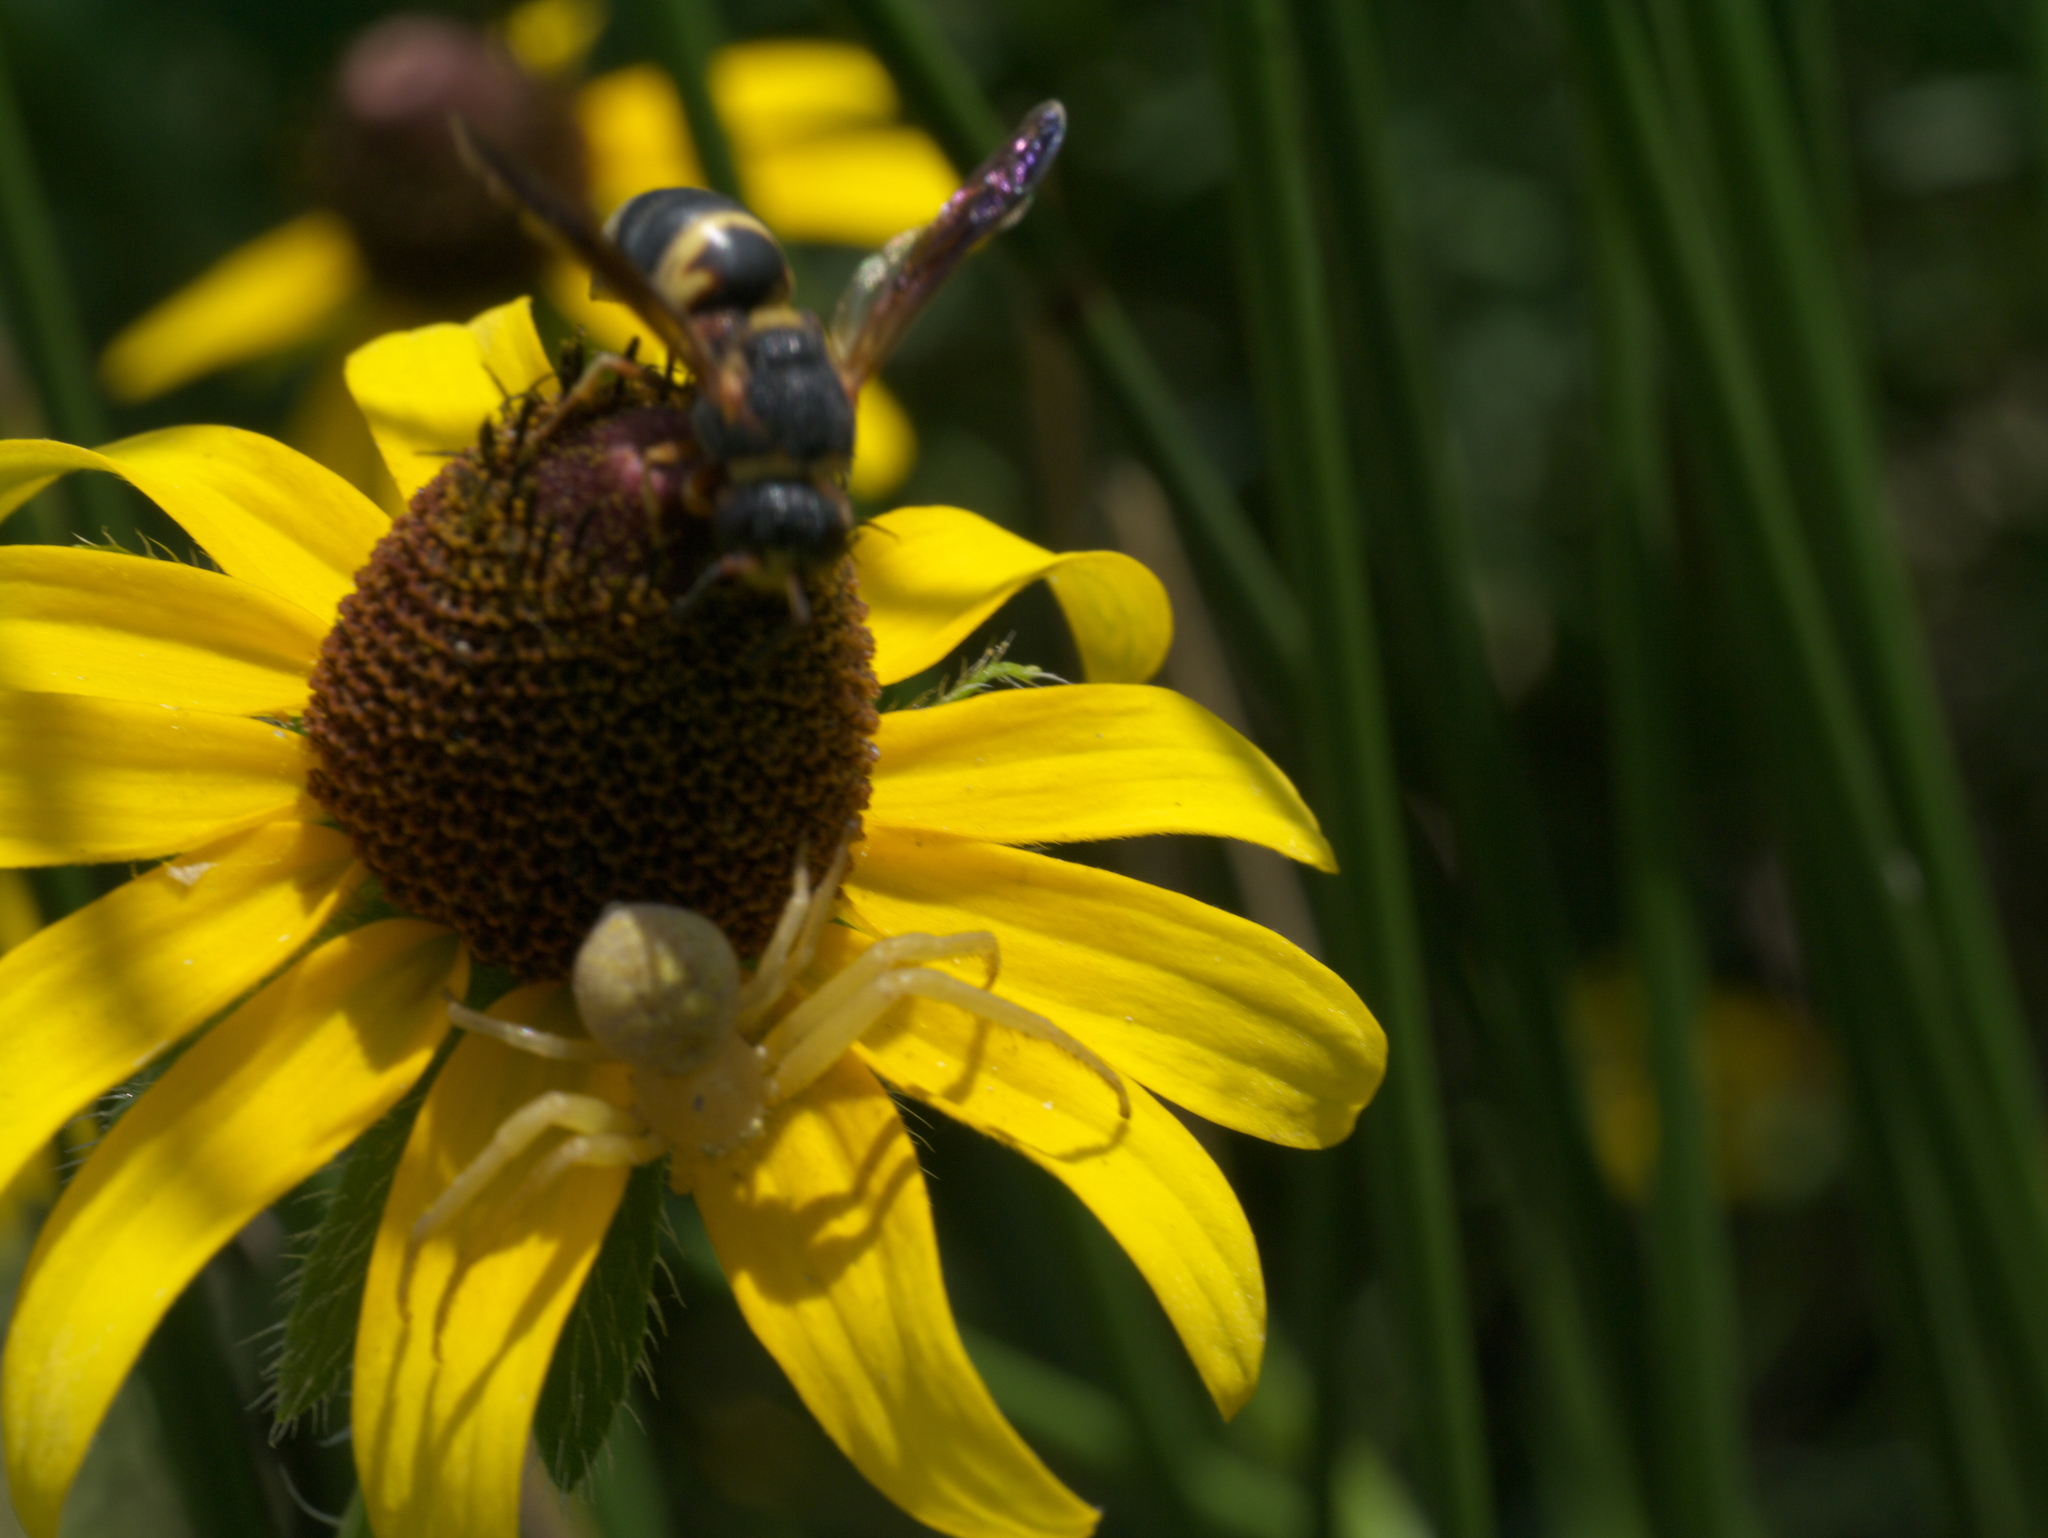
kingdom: Animalia
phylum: Arthropoda
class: Insecta
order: Hymenoptera
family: Eumenidae
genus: Euodynerus
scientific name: Euodynerus hidalgo
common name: Wasp
